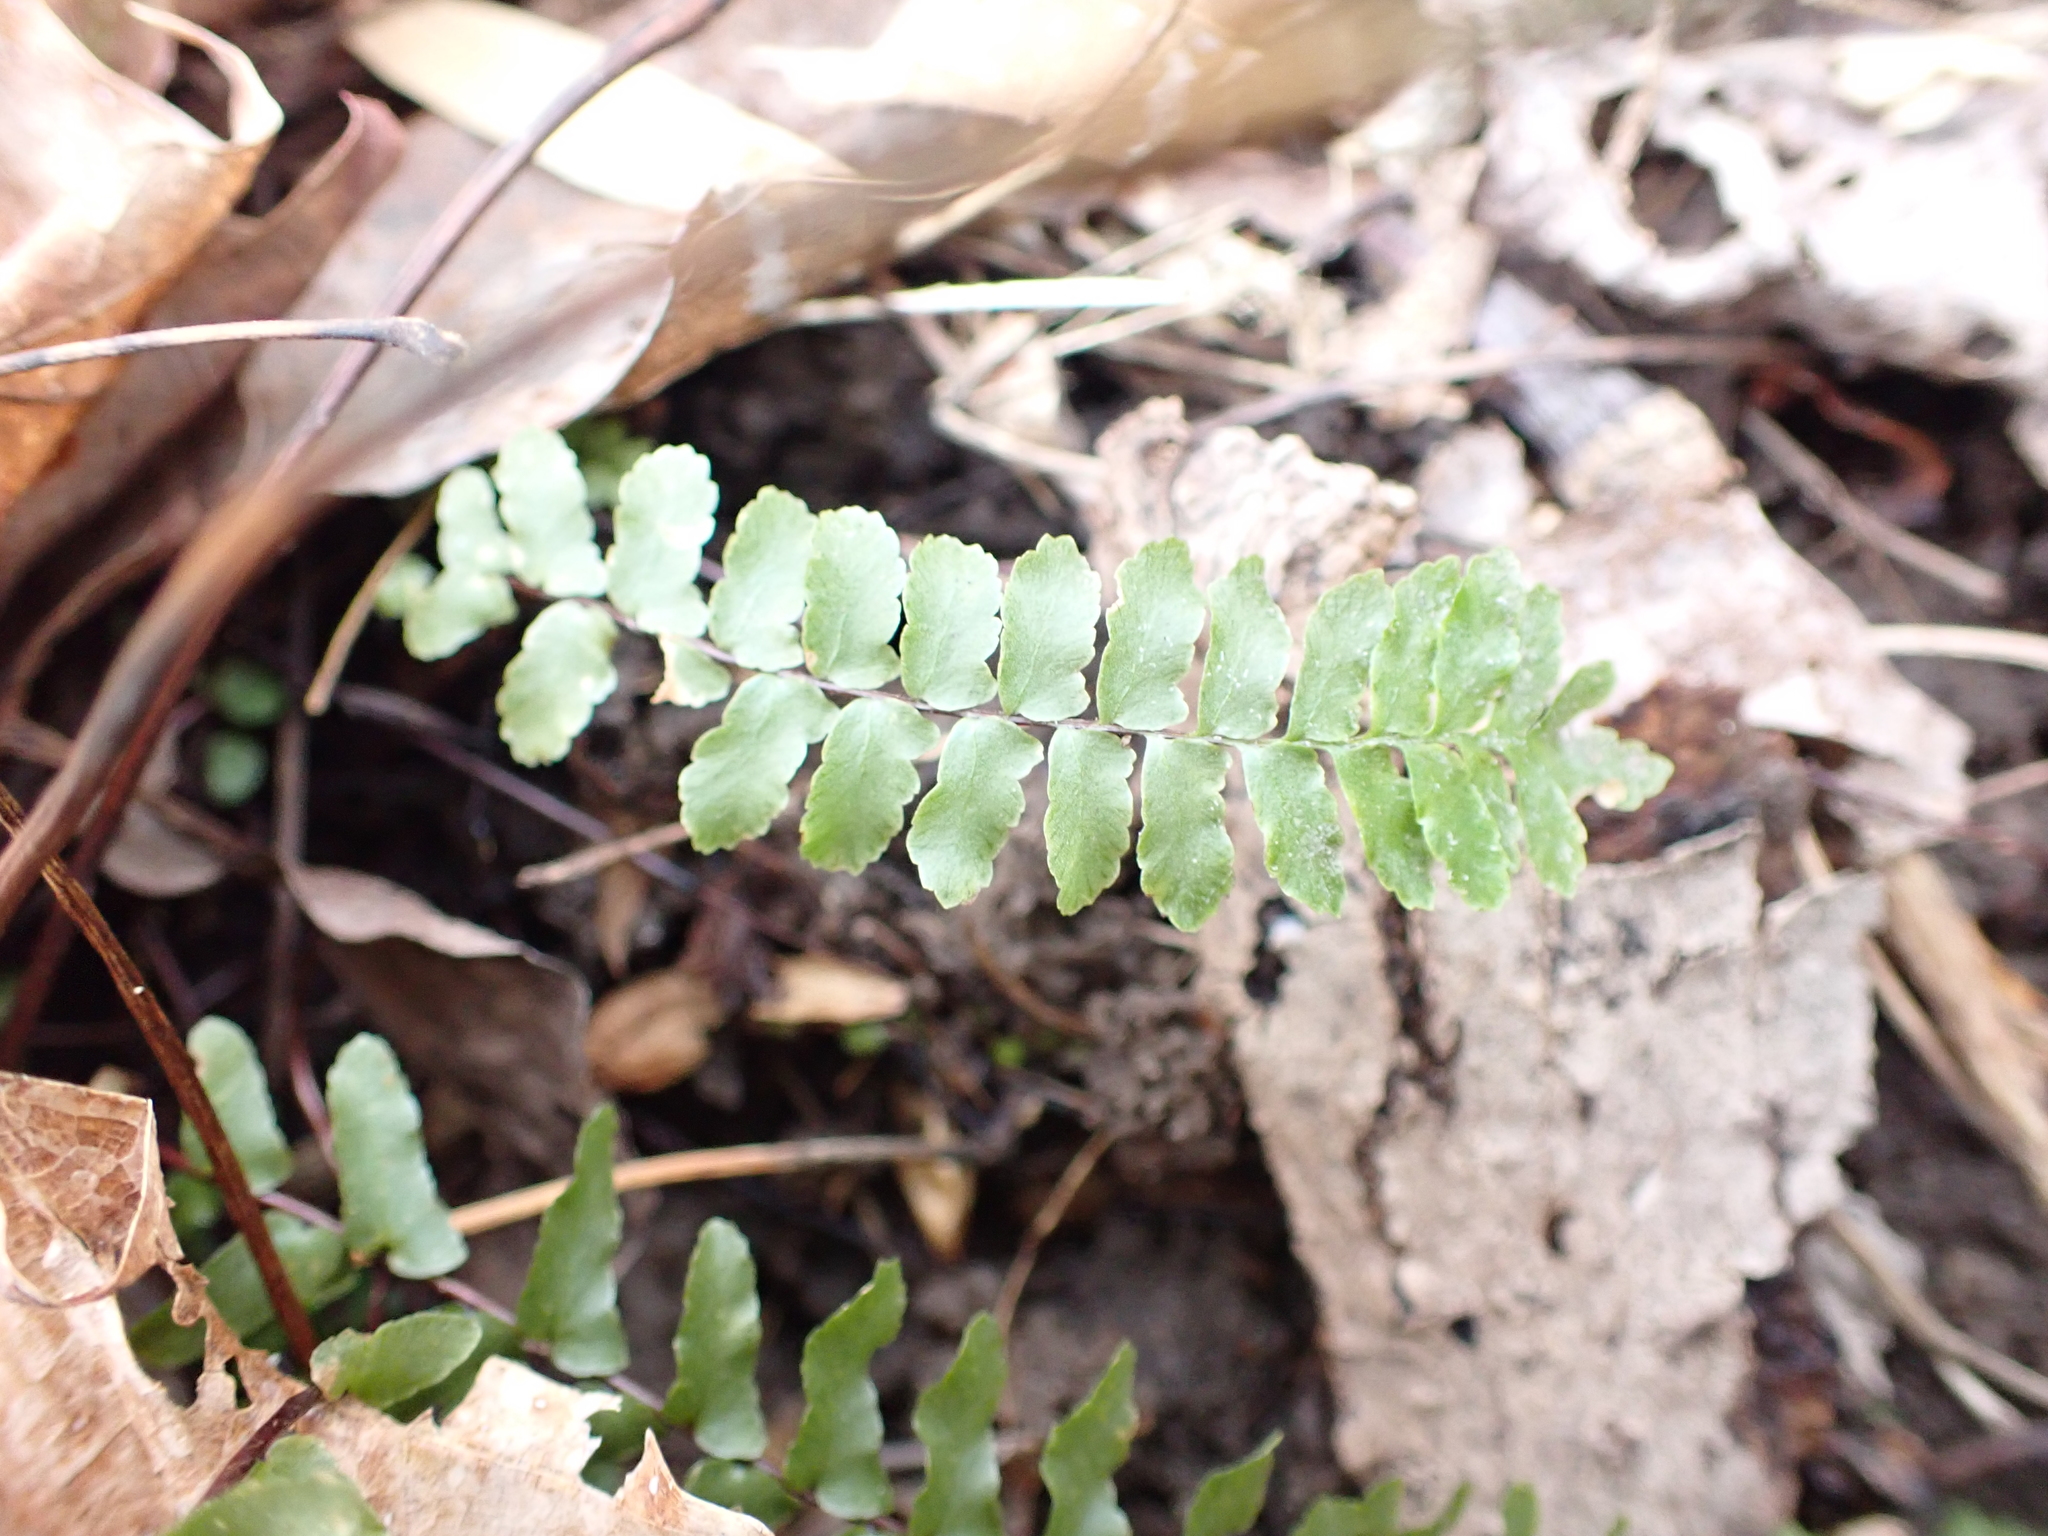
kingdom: Plantae
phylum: Tracheophyta
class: Polypodiopsida
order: Polypodiales
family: Aspleniaceae
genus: Asplenium
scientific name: Asplenium platyneuron
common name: Ebony spleenwort
